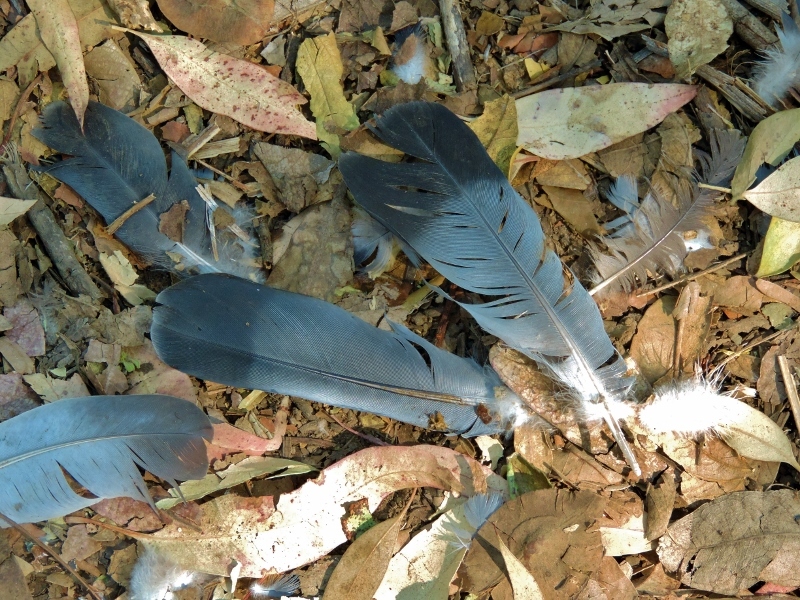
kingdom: Animalia
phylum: Chordata
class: Aves
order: Columbiformes
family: Columbidae
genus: Columba
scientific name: Columba livia
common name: Rock pigeon
